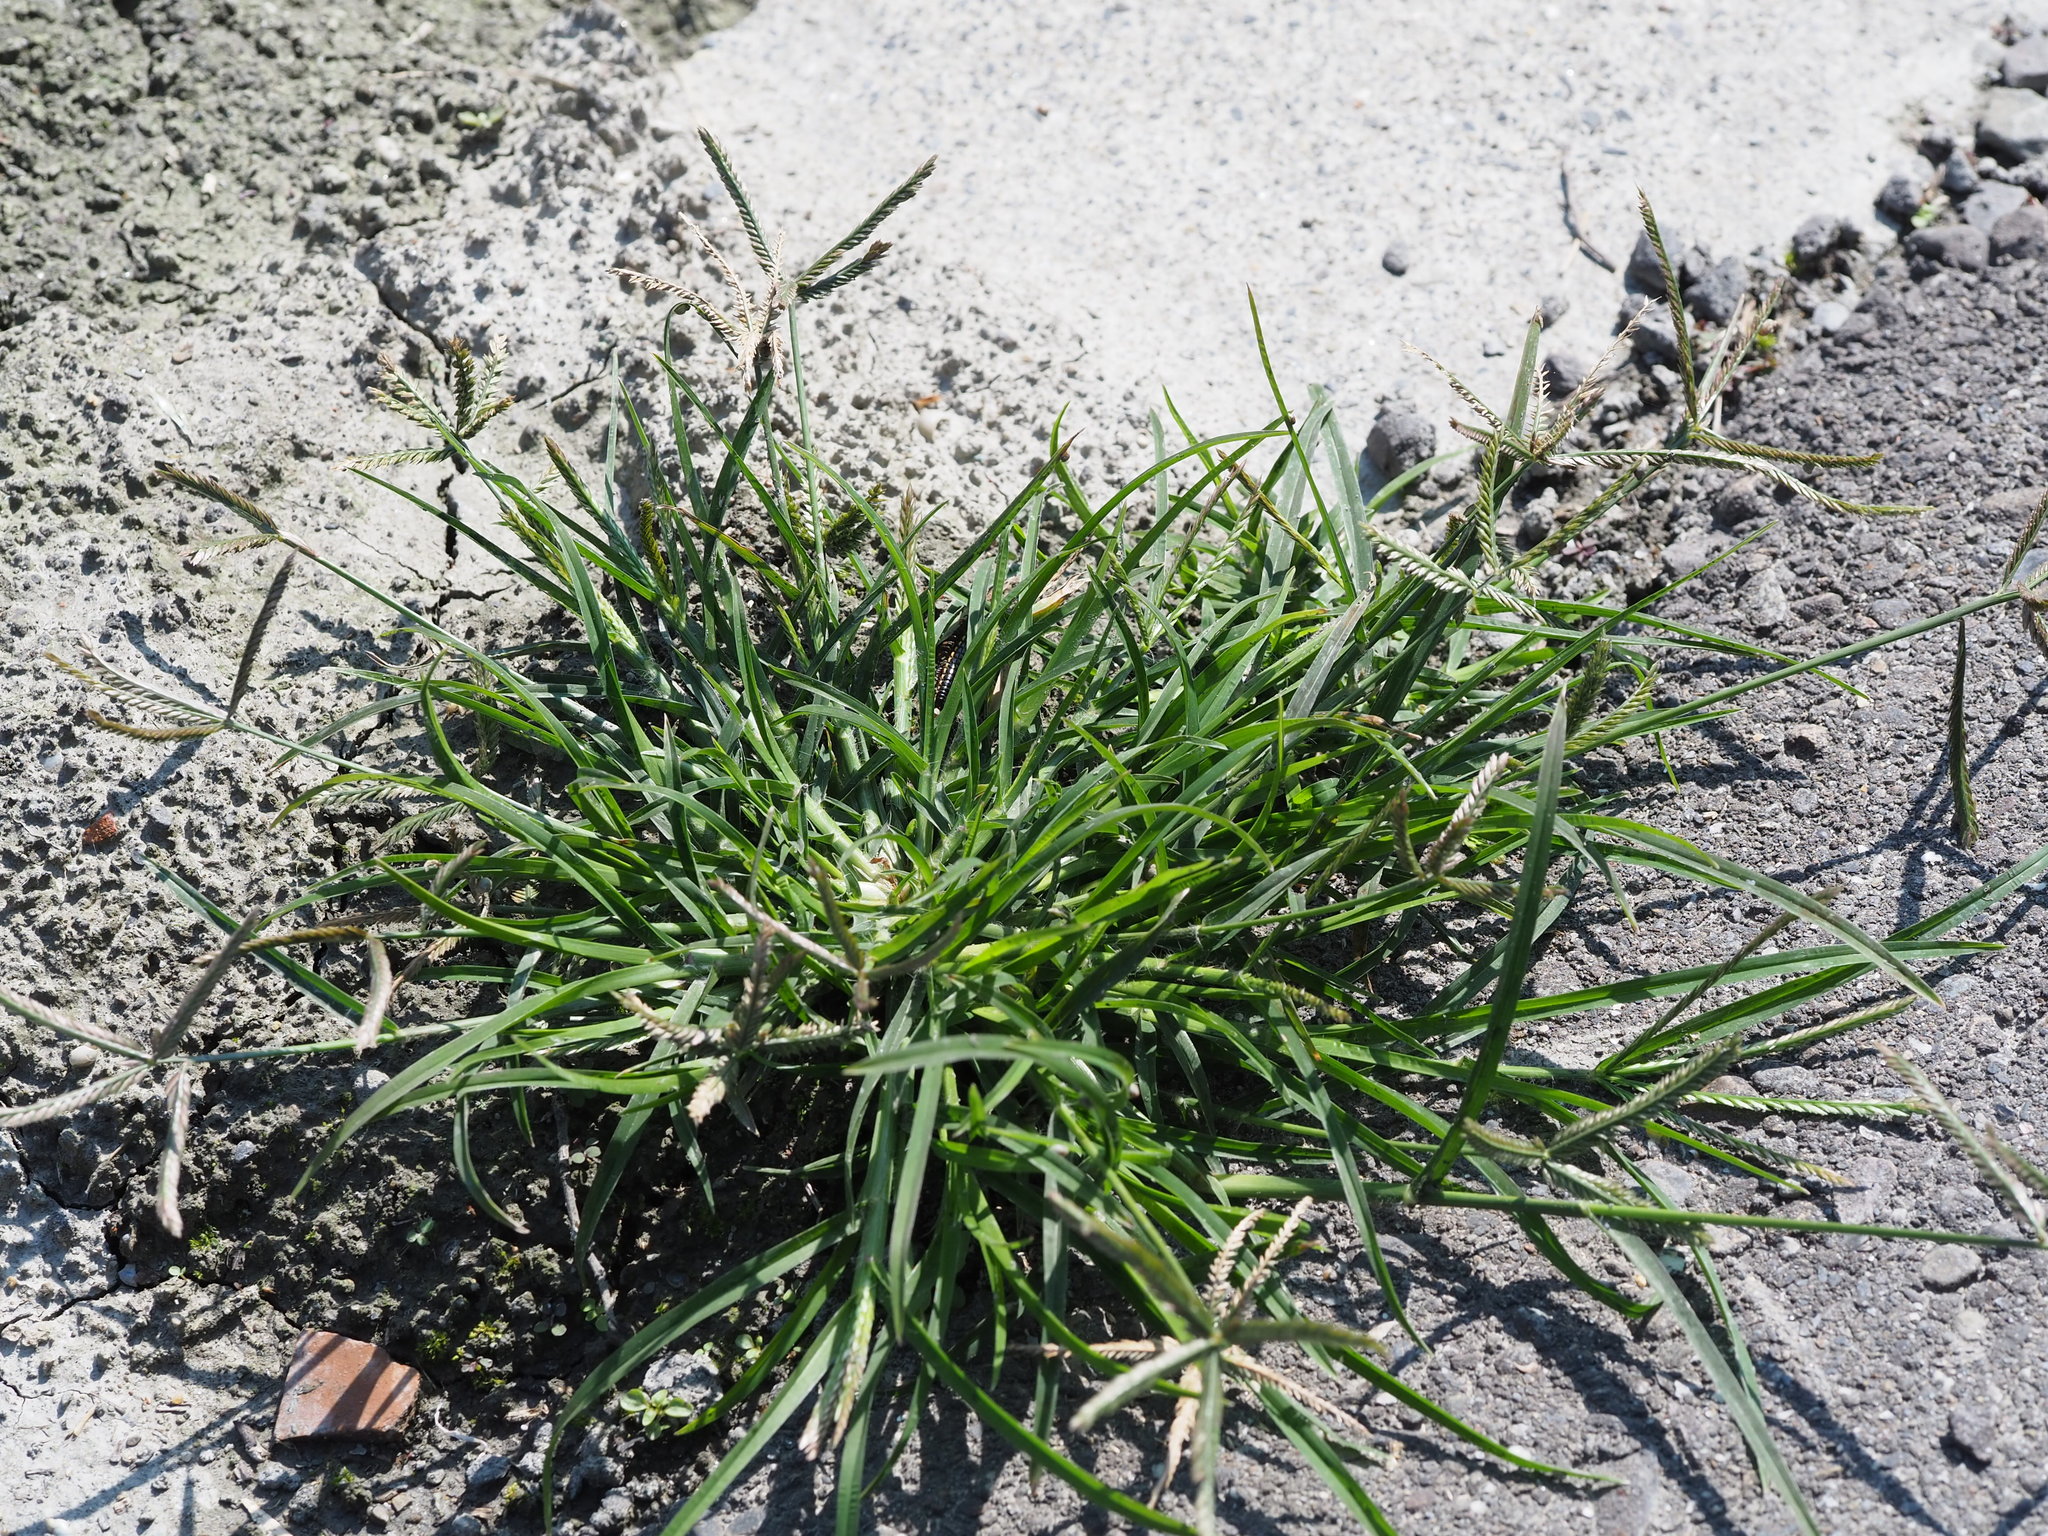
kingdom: Plantae
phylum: Tracheophyta
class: Liliopsida
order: Poales
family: Poaceae
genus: Eleusine
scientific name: Eleusine indica
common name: Yard-grass
